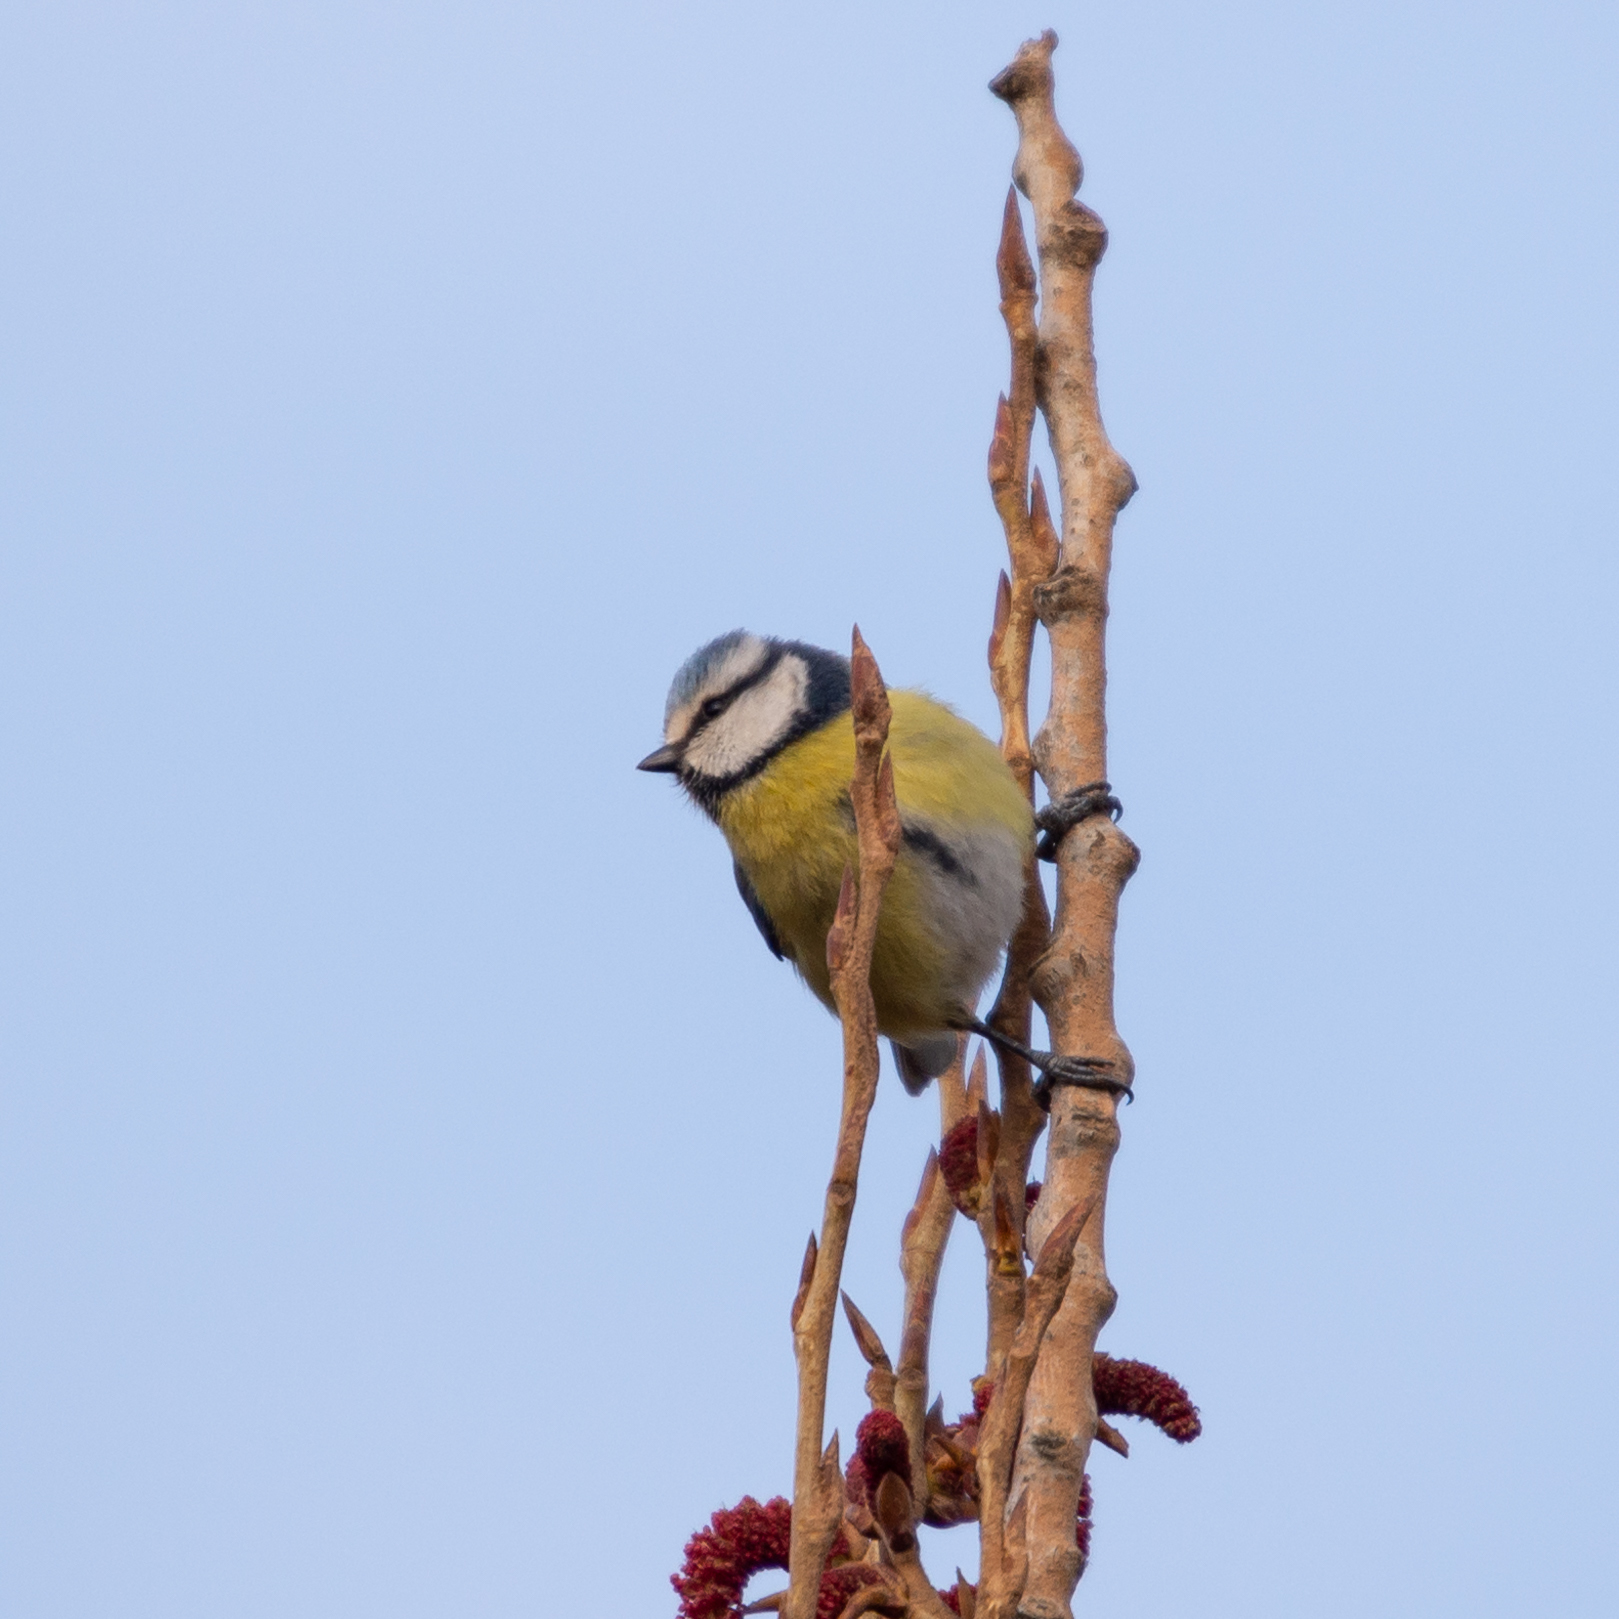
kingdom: Animalia
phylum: Chordata
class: Aves
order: Passeriformes
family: Paridae
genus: Cyanistes
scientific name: Cyanistes caeruleus
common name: Eurasian blue tit
